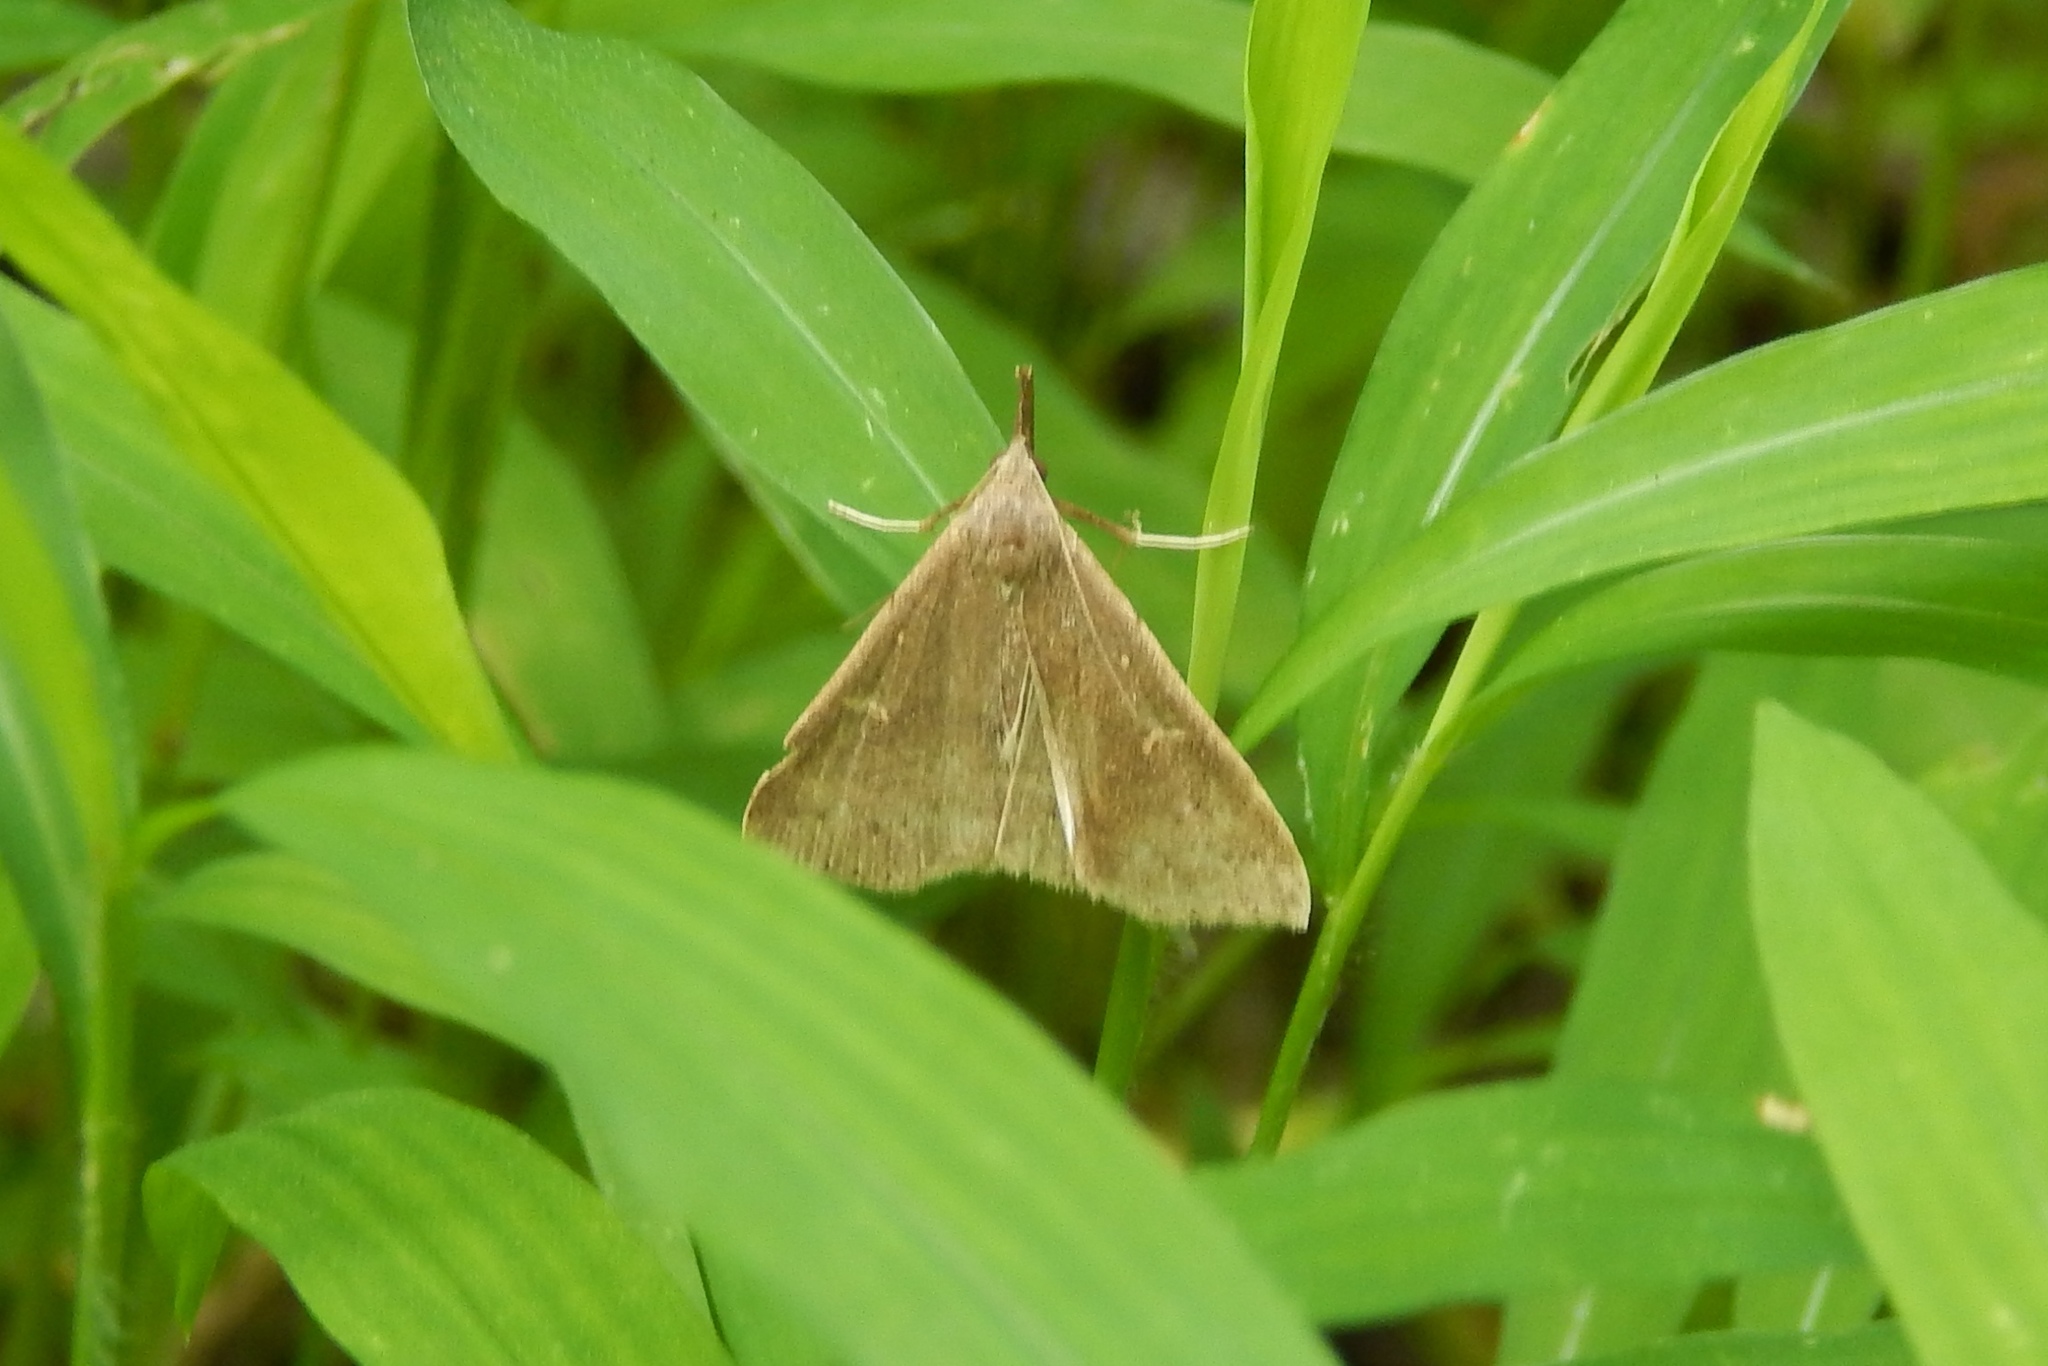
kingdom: Animalia
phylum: Arthropoda
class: Insecta
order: Lepidoptera
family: Erebidae
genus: Renia
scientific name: Renia adspergillus
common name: Speckled renia moth
